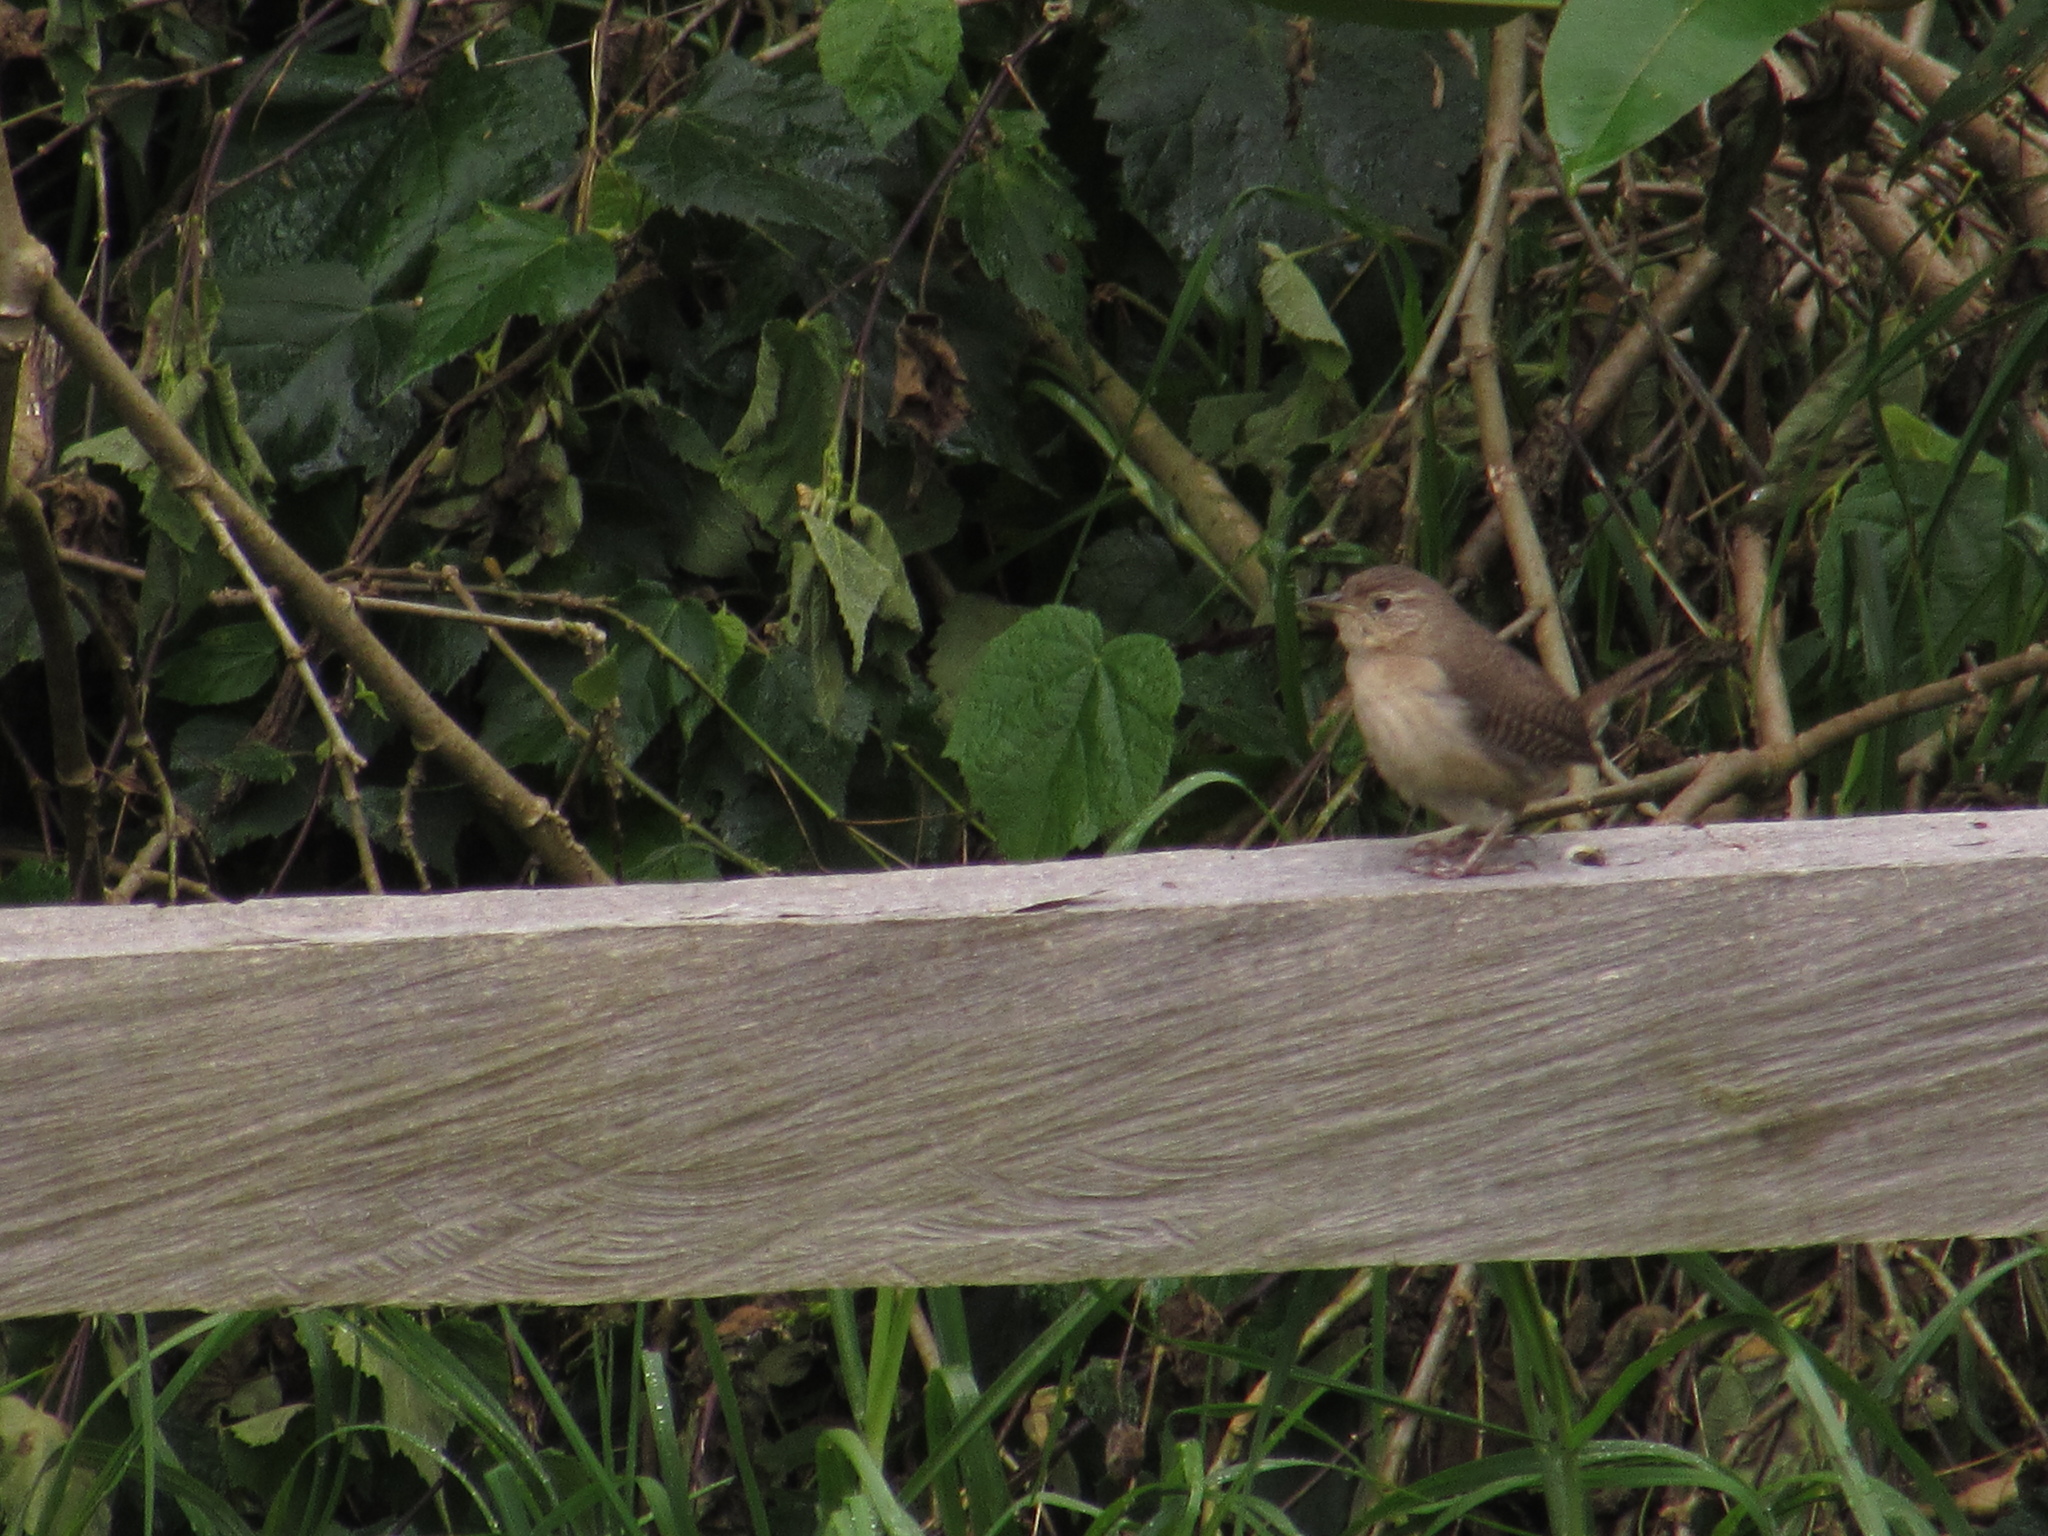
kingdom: Animalia
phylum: Chordata
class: Aves
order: Passeriformes
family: Troglodytidae
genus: Troglodytes
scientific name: Troglodytes aedon
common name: House wren
